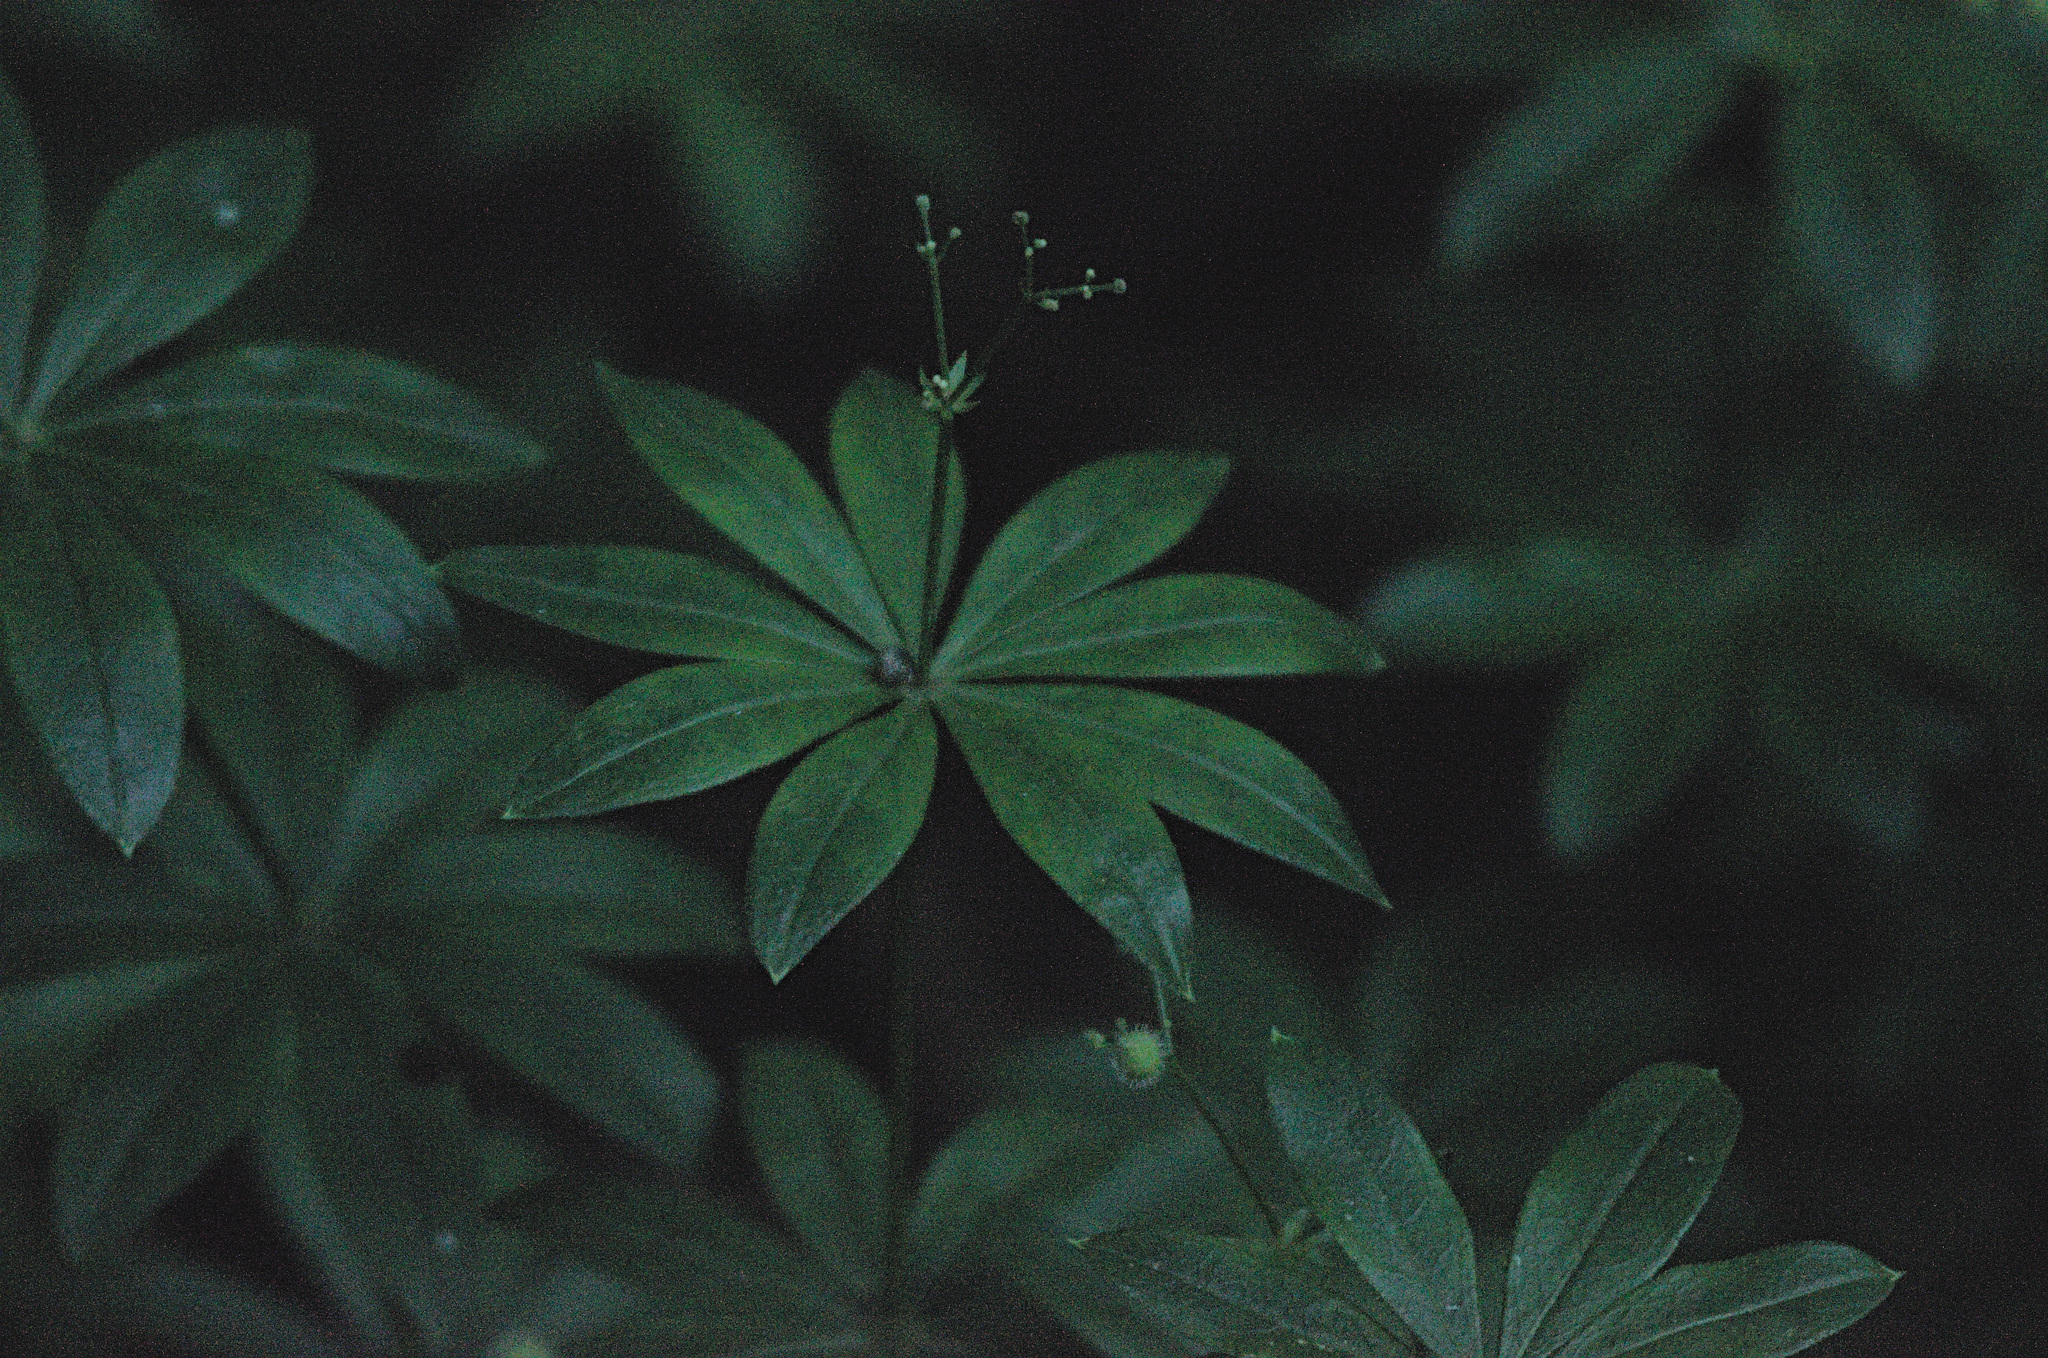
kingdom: Plantae
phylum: Tracheophyta
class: Magnoliopsida
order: Gentianales
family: Rubiaceae
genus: Galium
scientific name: Galium odoratum
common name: Sweet woodruff
